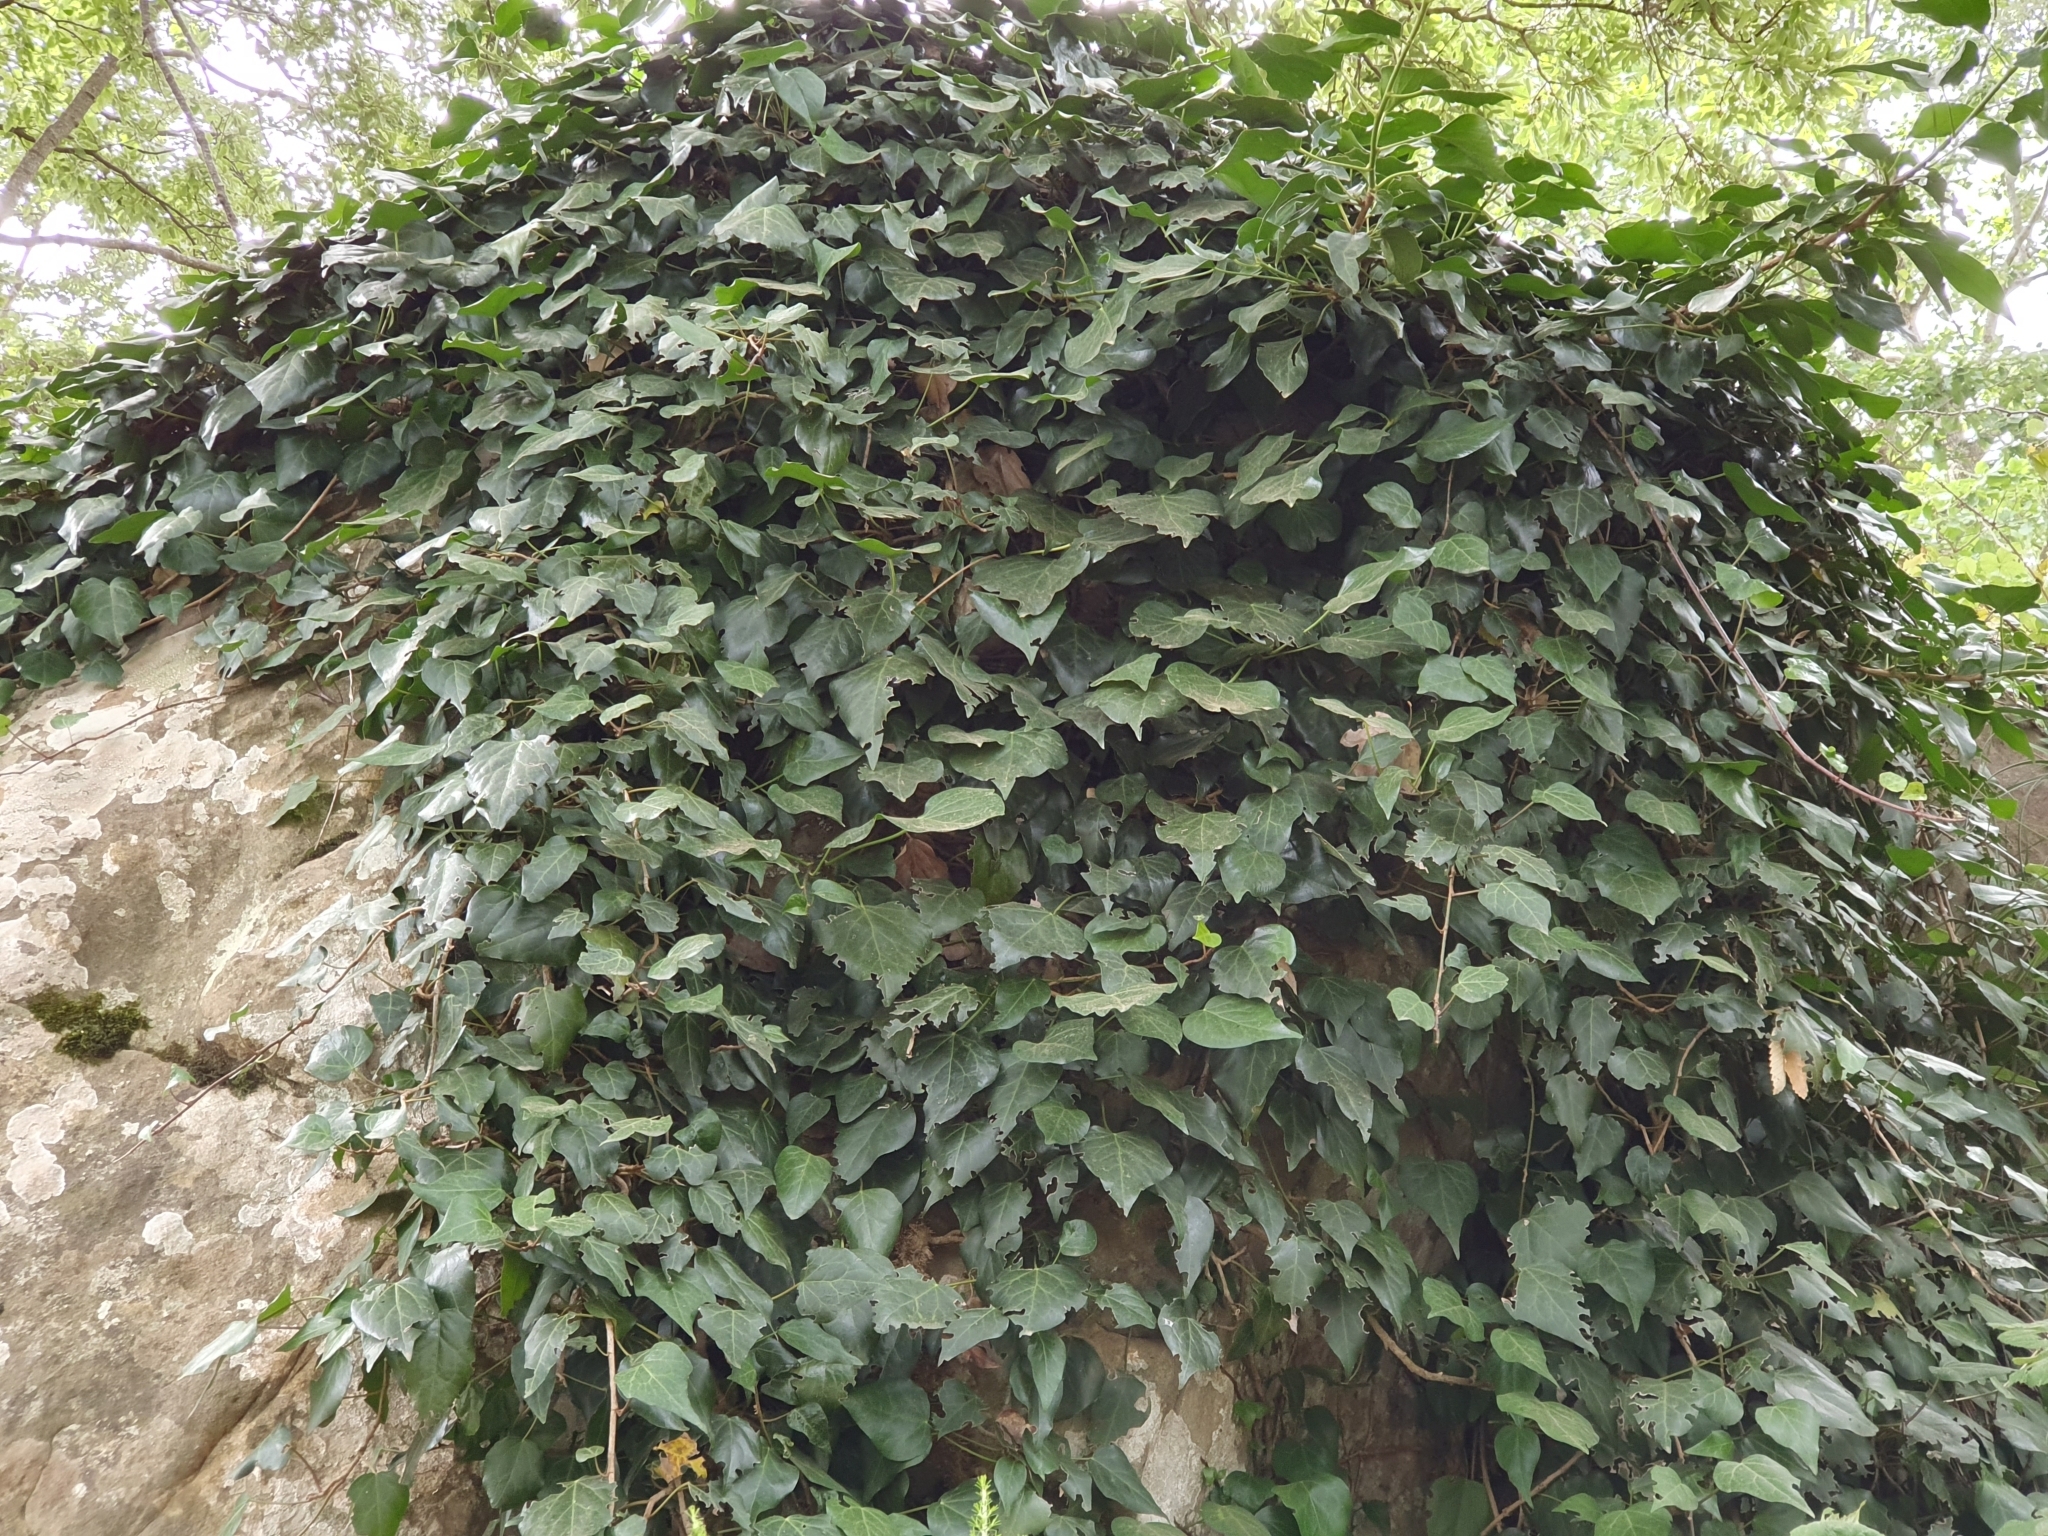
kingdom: Plantae
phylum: Tracheophyta
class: Magnoliopsida
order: Apiales
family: Araliaceae
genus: Hedera
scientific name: Hedera algeriensis
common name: Algerian ivy
